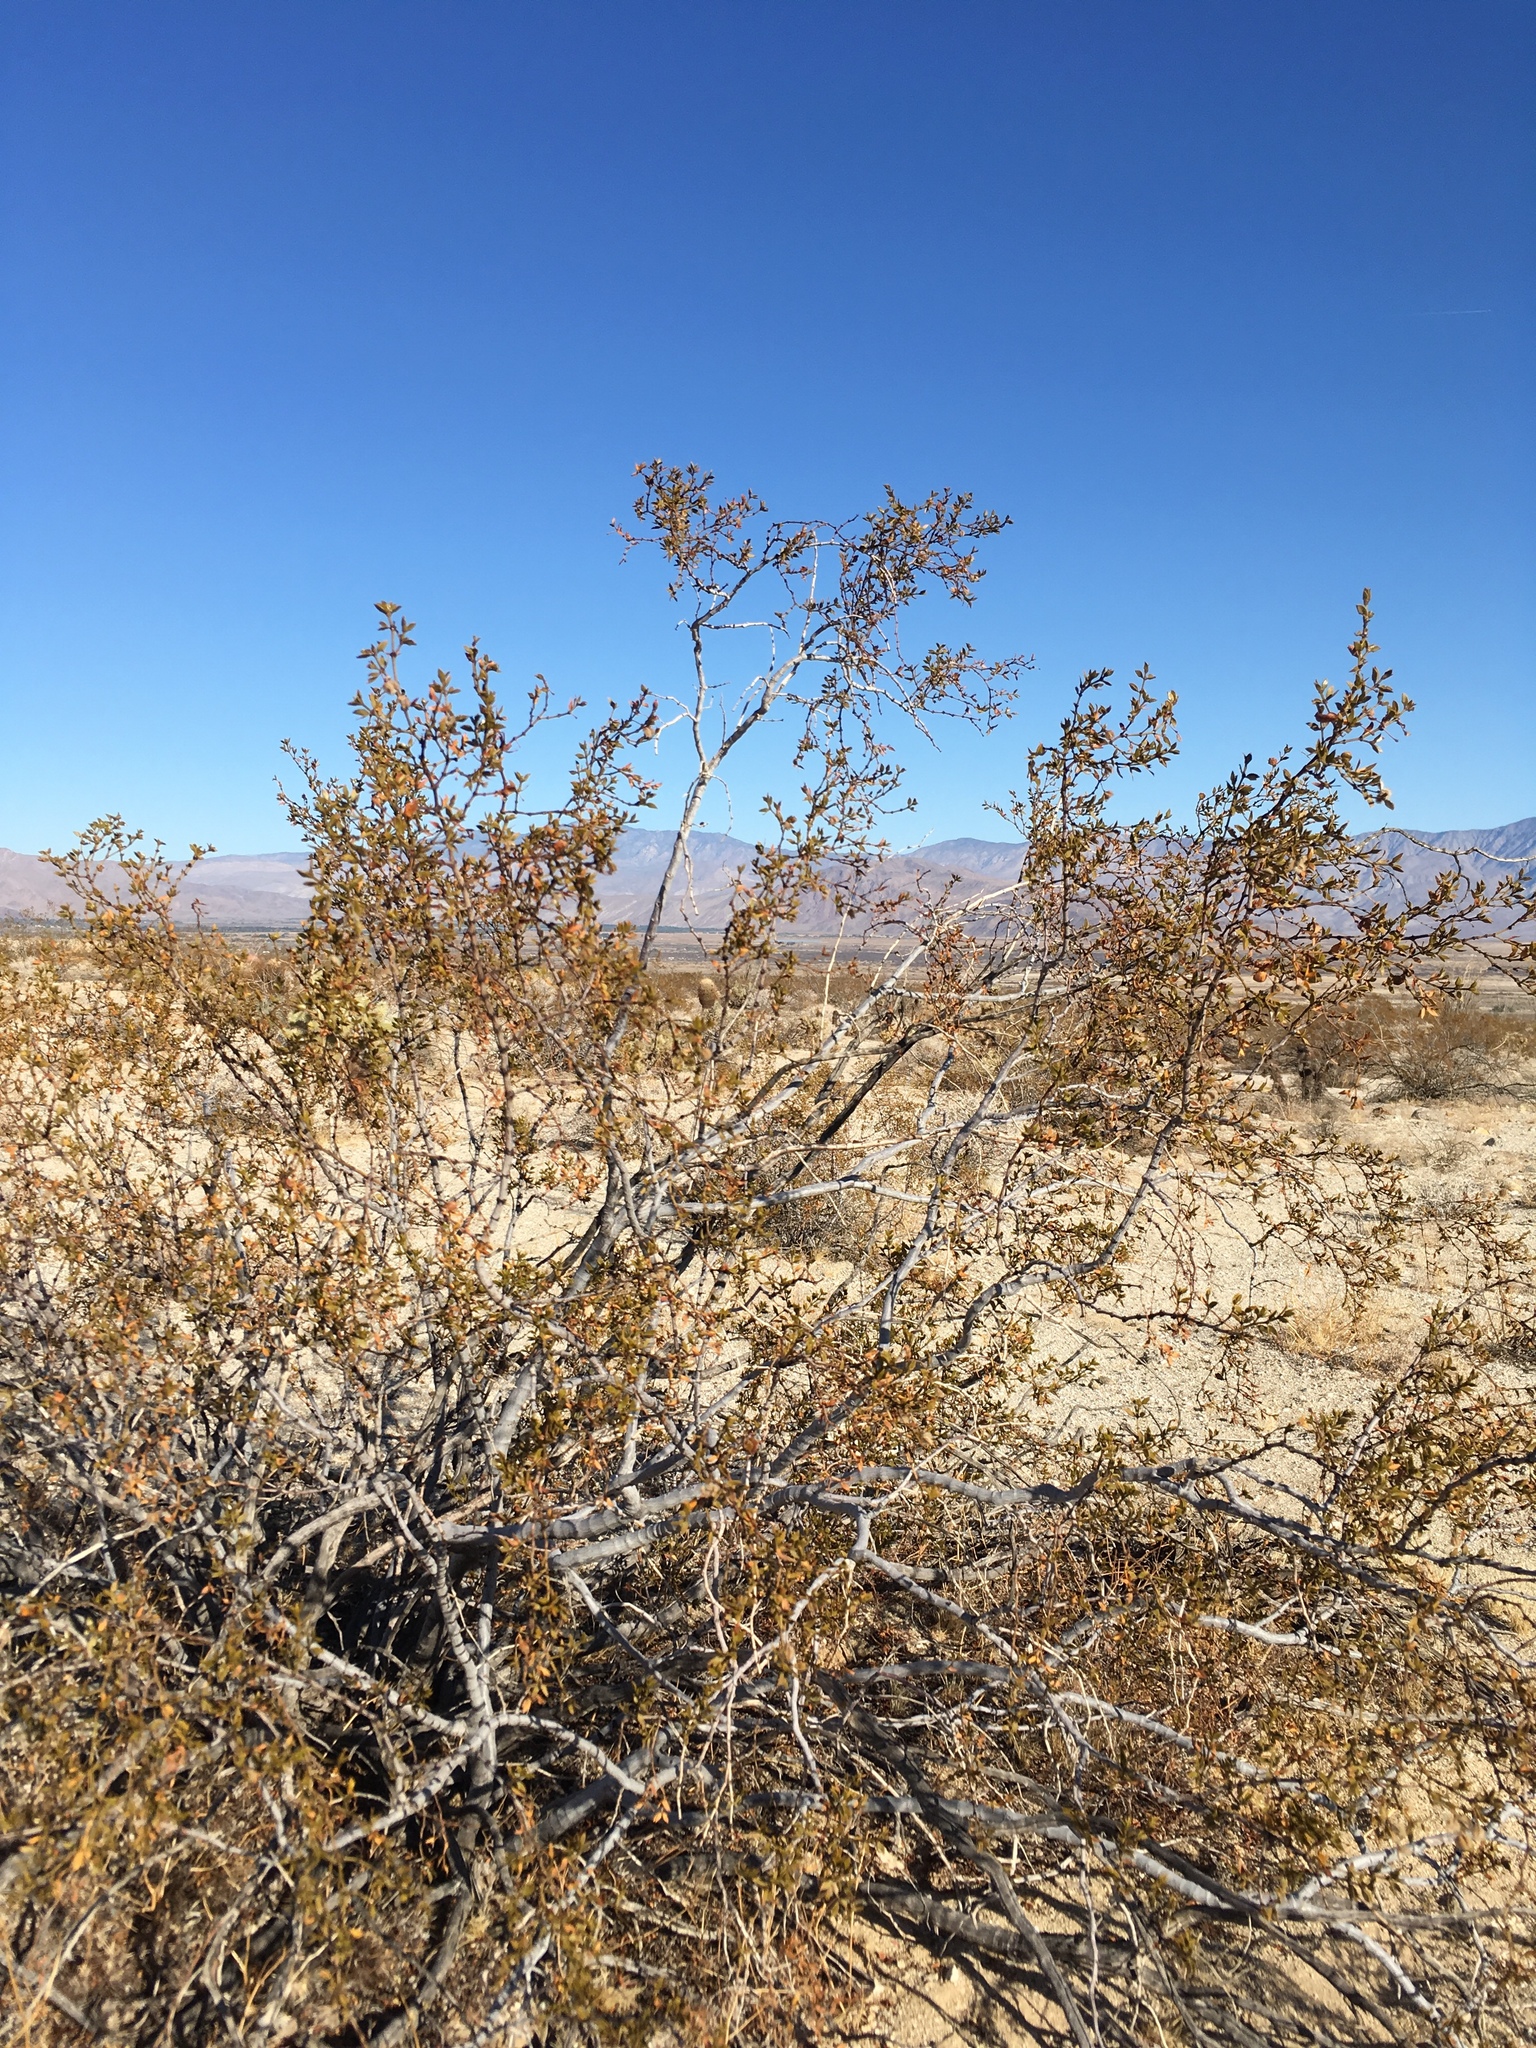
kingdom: Plantae
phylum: Tracheophyta
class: Magnoliopsida
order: Zygophyllales
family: Zygophyllaceae
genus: Larrea
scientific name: Larrea tridentata
